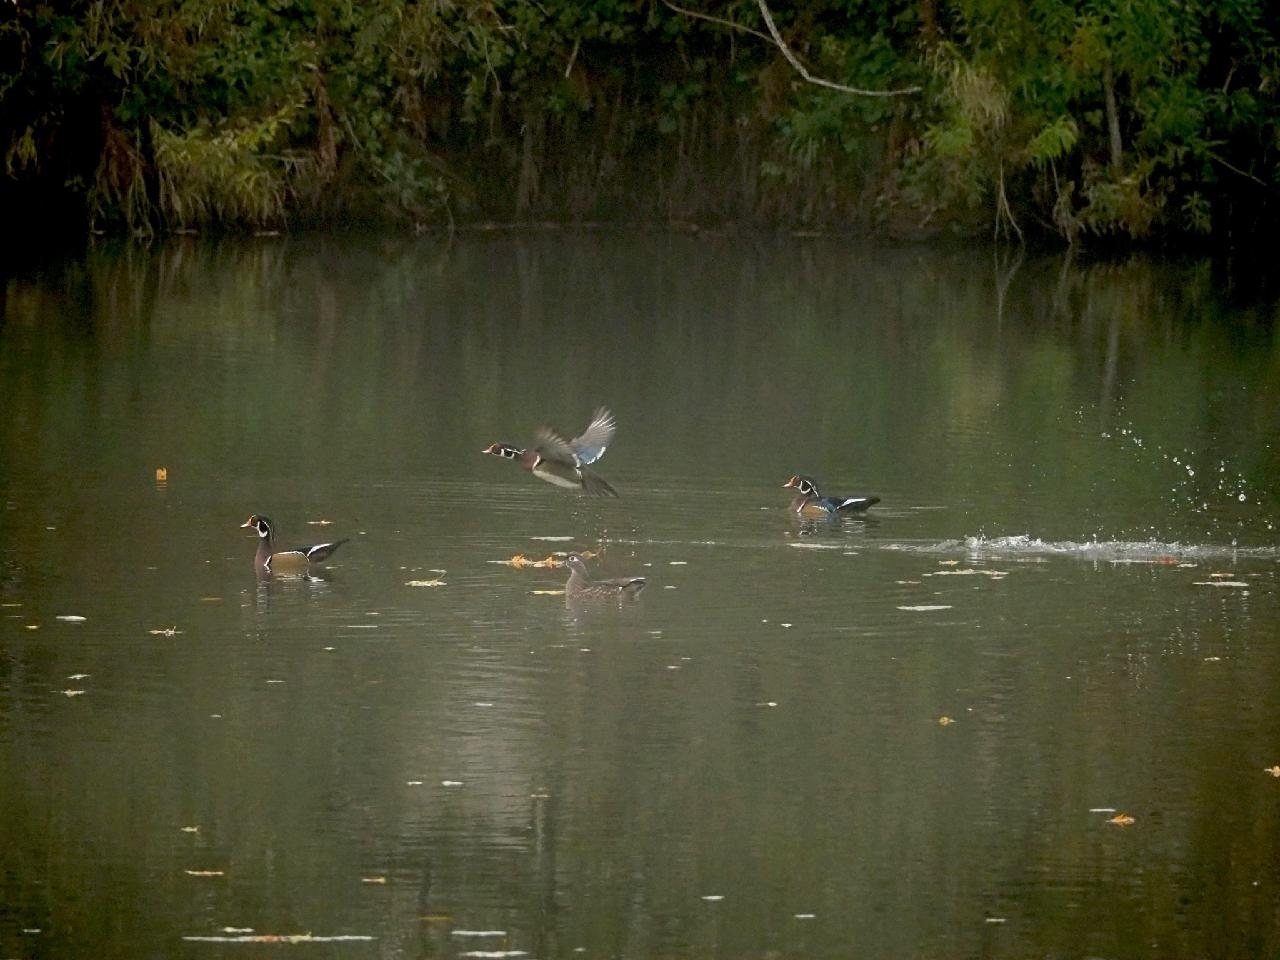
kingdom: Animalia
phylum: Chordata
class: Aves
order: Anseriformes
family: Anatidae
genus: Aix
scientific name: Aix sponsa
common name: Wood duck
